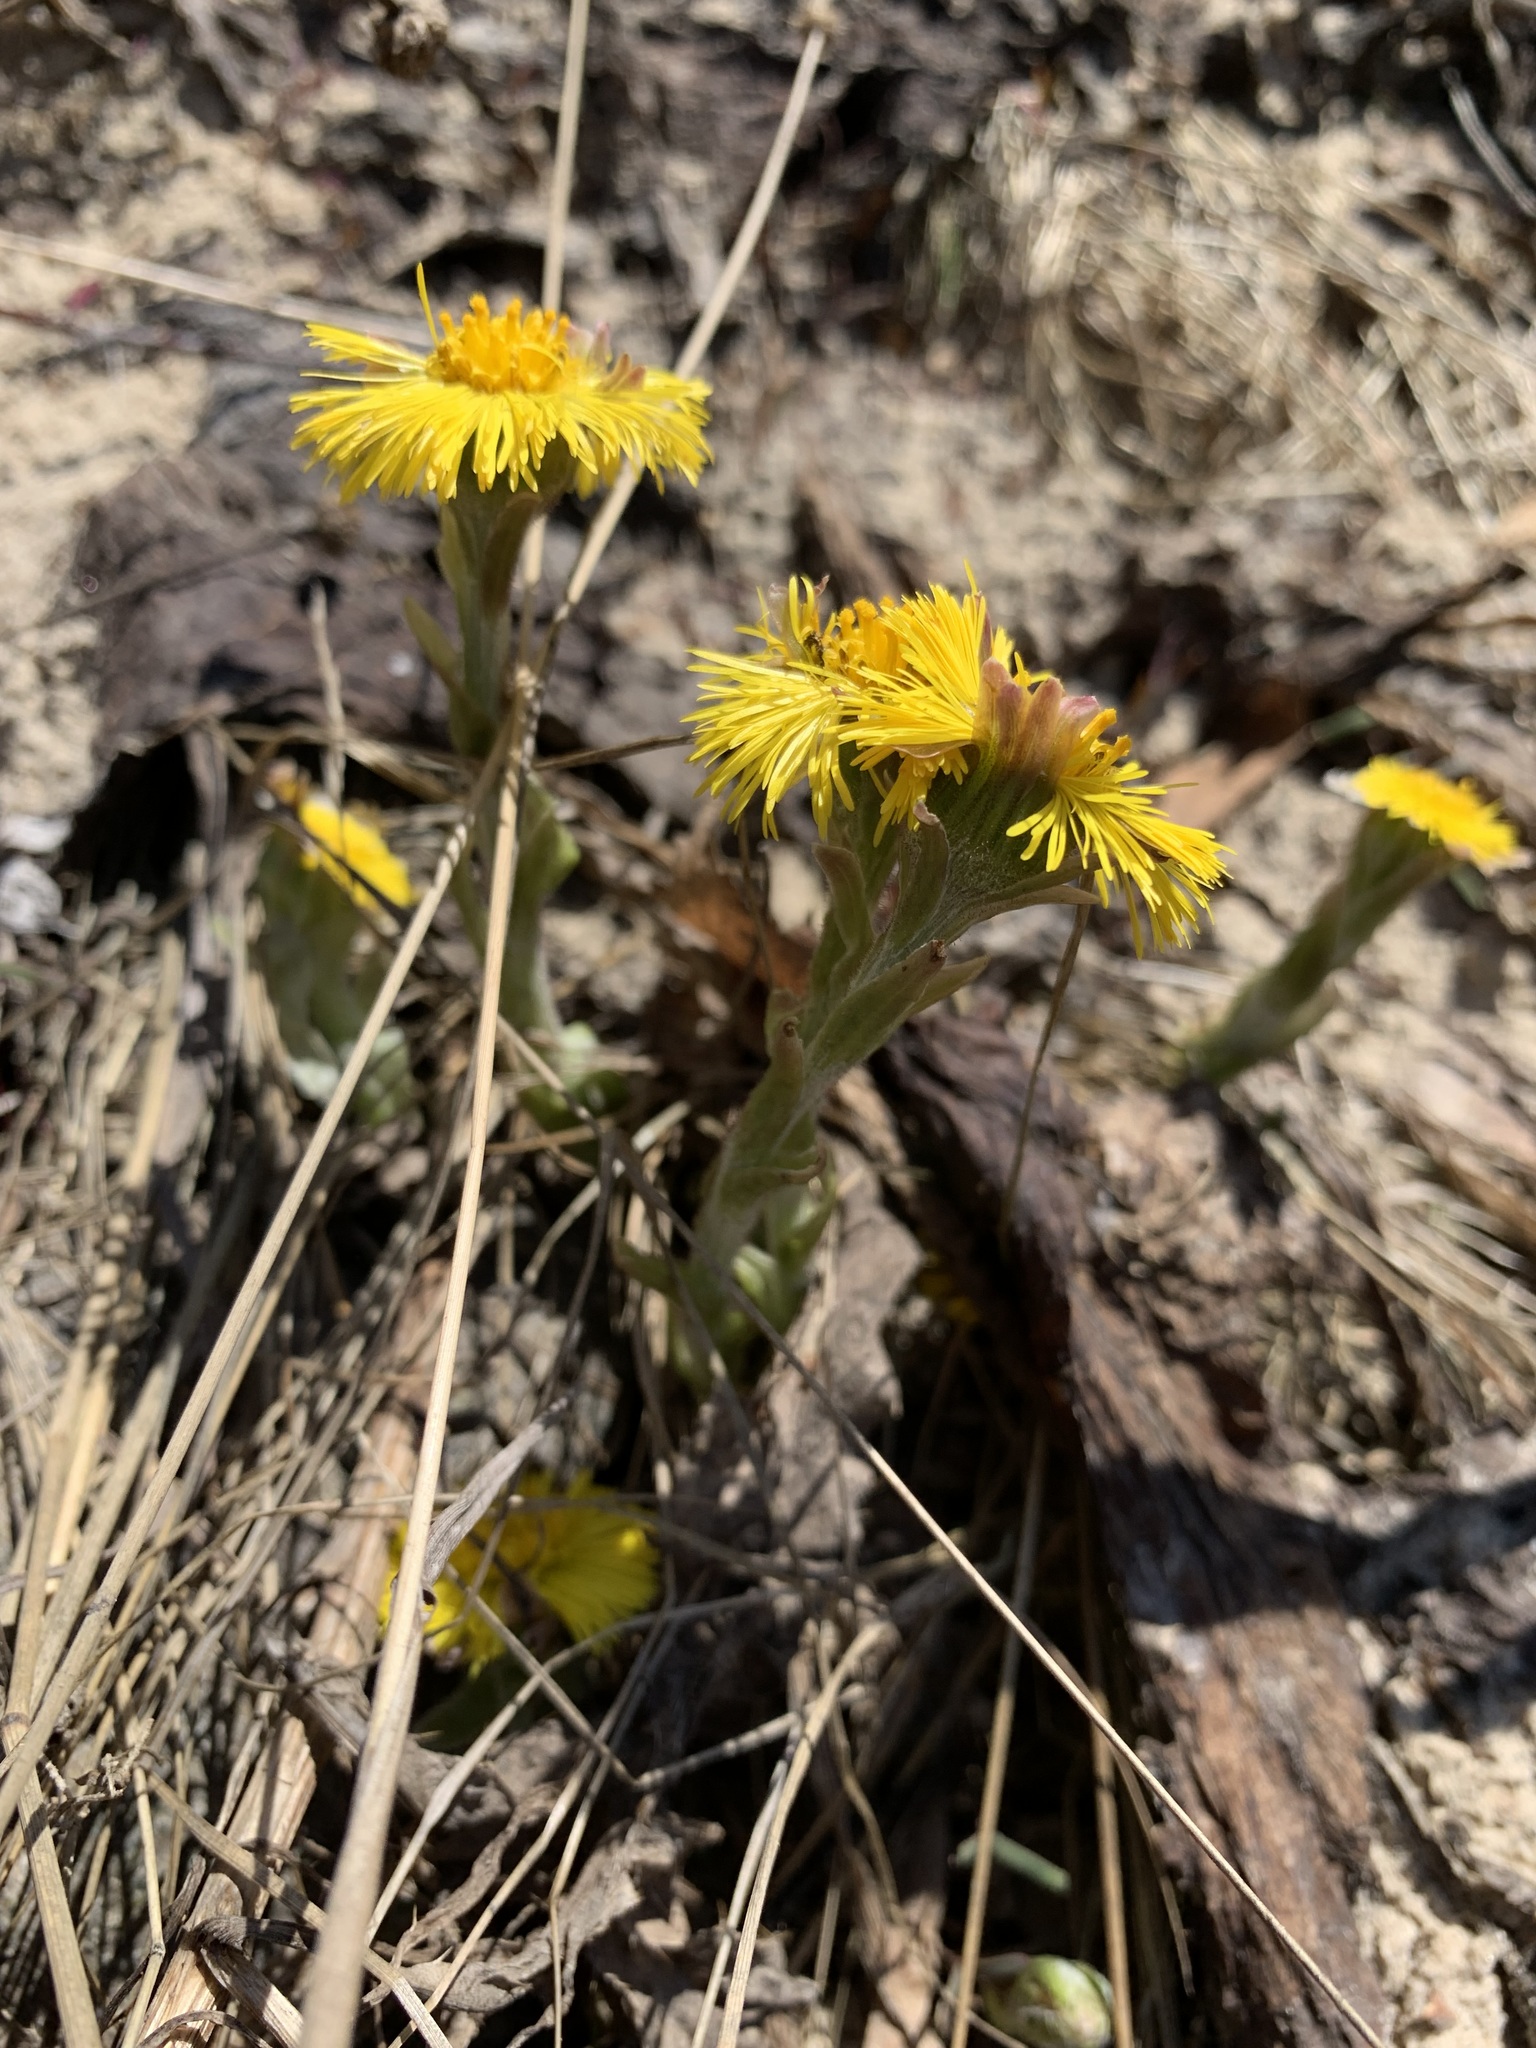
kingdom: Plantae
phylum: Tracheophyta
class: Magnoliopsida
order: Asterales
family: Asteraceae
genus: Tussilago
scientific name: Tussilago farfara
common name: Coltsfoot
